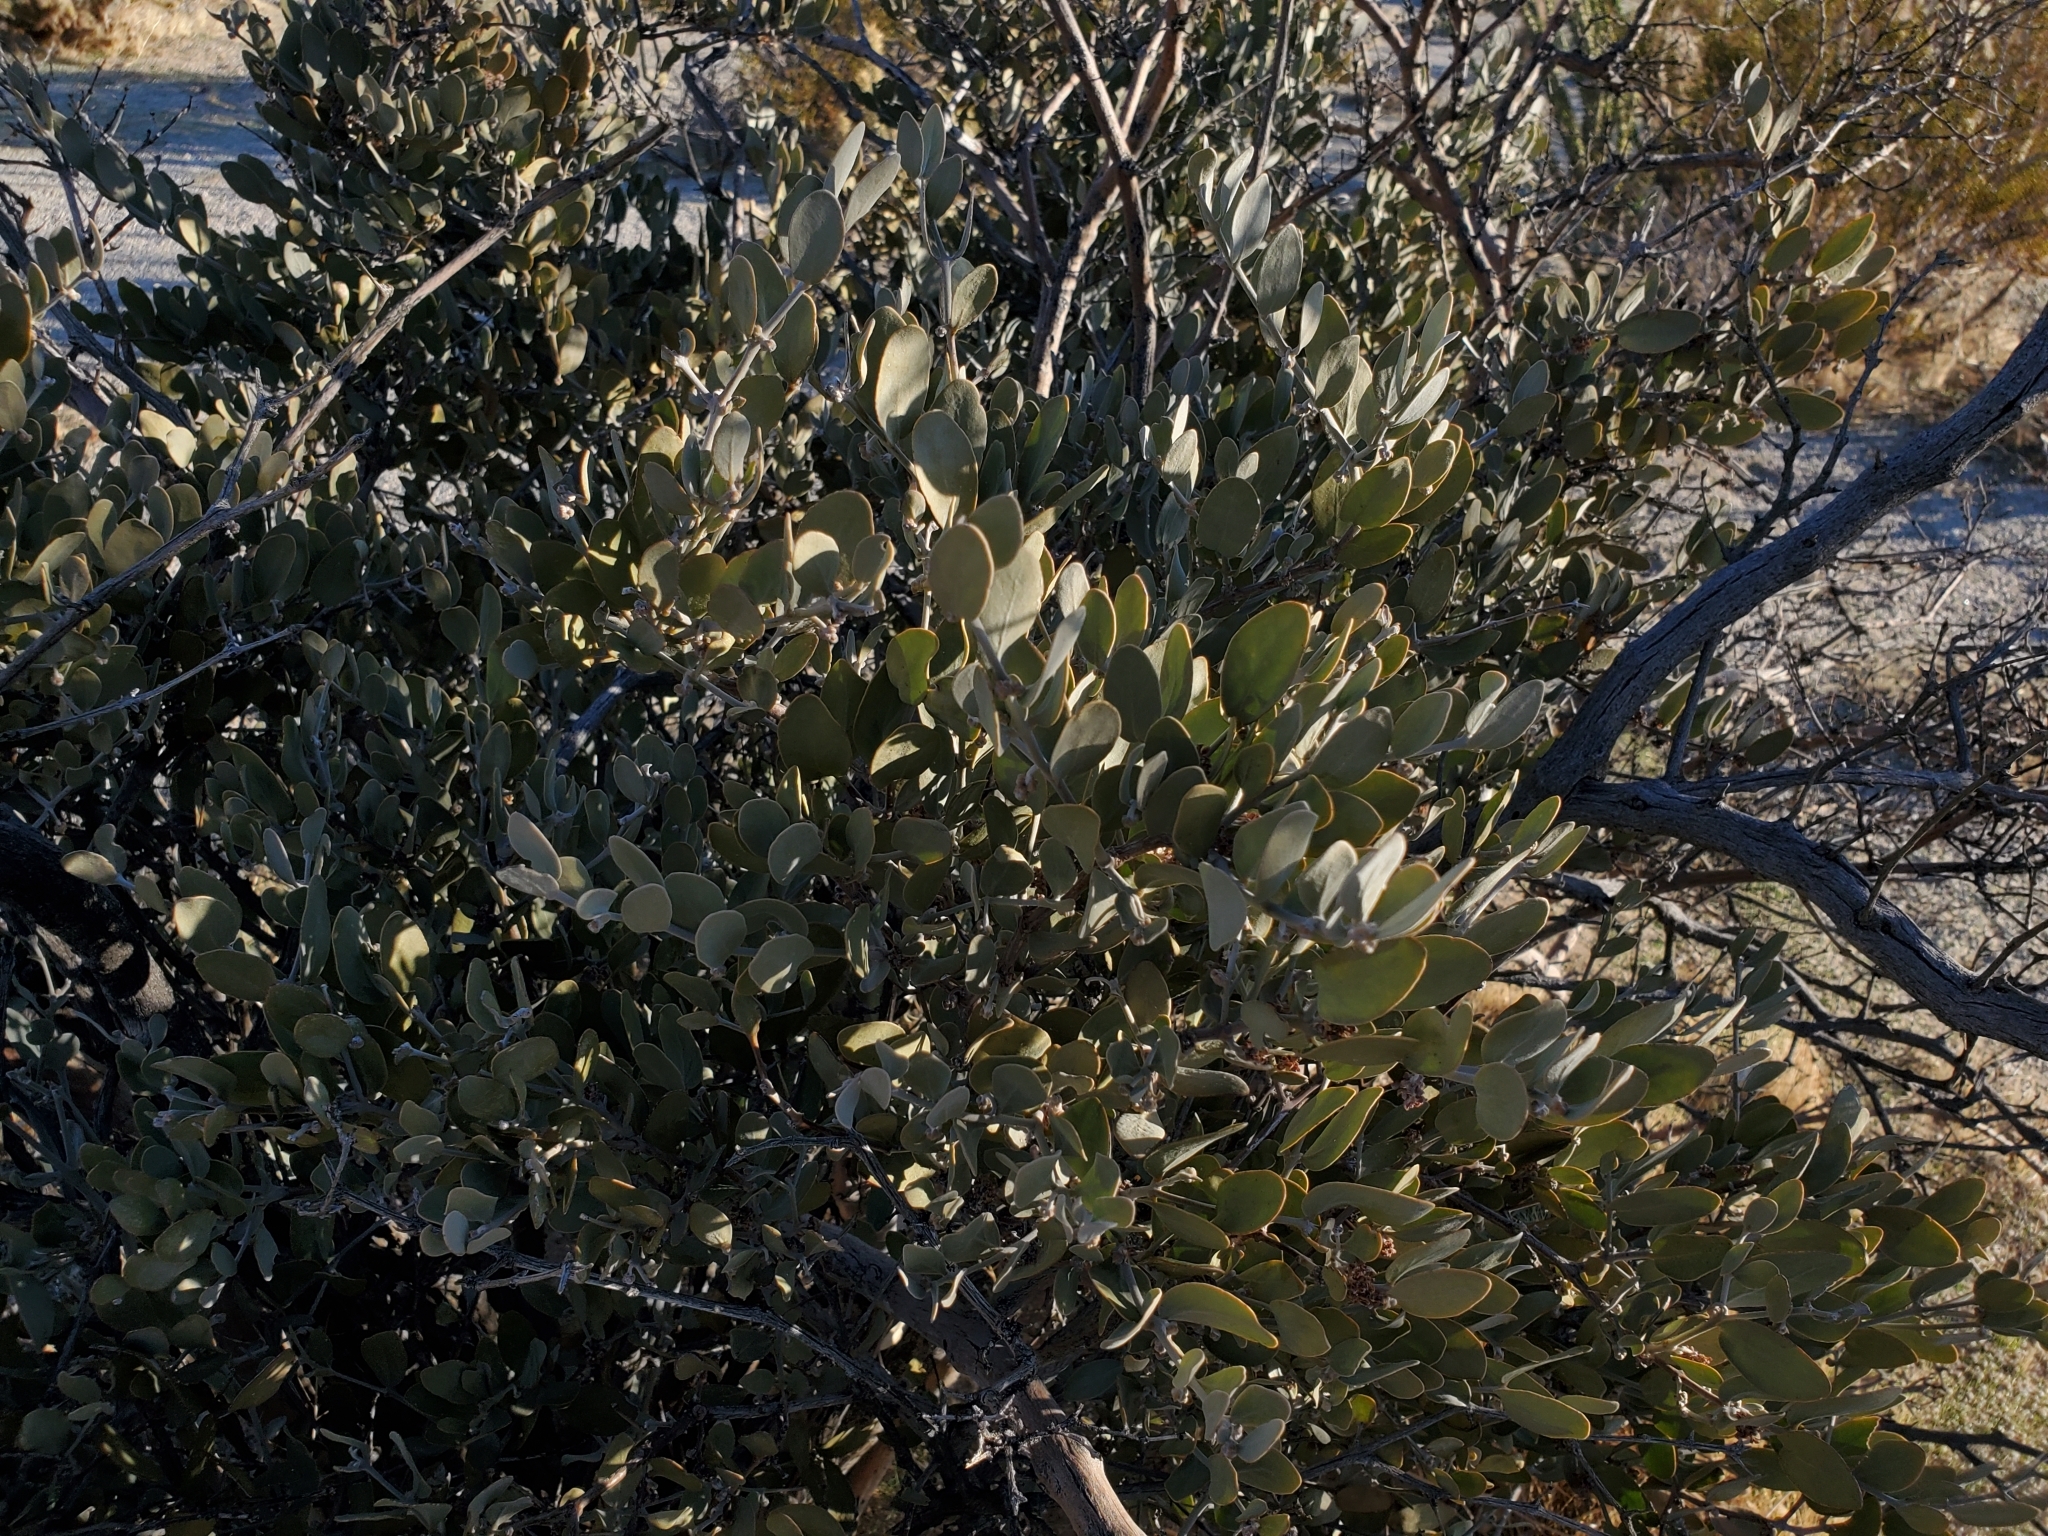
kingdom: Plantae
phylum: Tracheophyta
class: Magnoliopsida
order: Caryophyllales
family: Simmondsiaceae
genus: Simmondsia
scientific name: Simmondsia chinensis
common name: Jojoba
